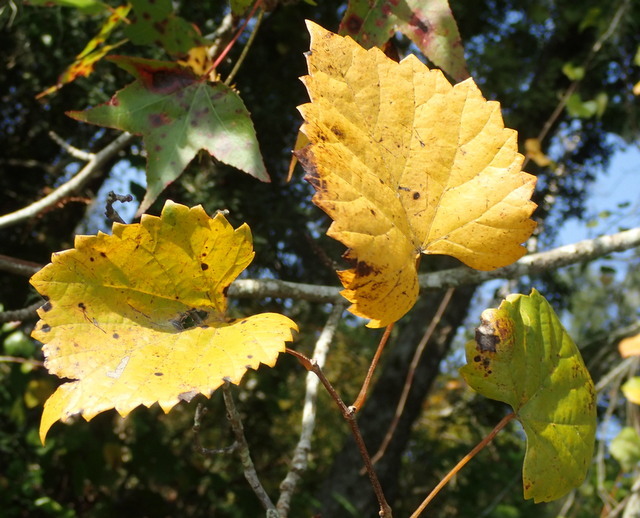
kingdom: Plantae
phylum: Tracheophyta
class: Magnoliopsida
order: Vitales
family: Vitaceae
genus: Vitis
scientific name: Vitis rotundifolia
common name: Muscadine grape
